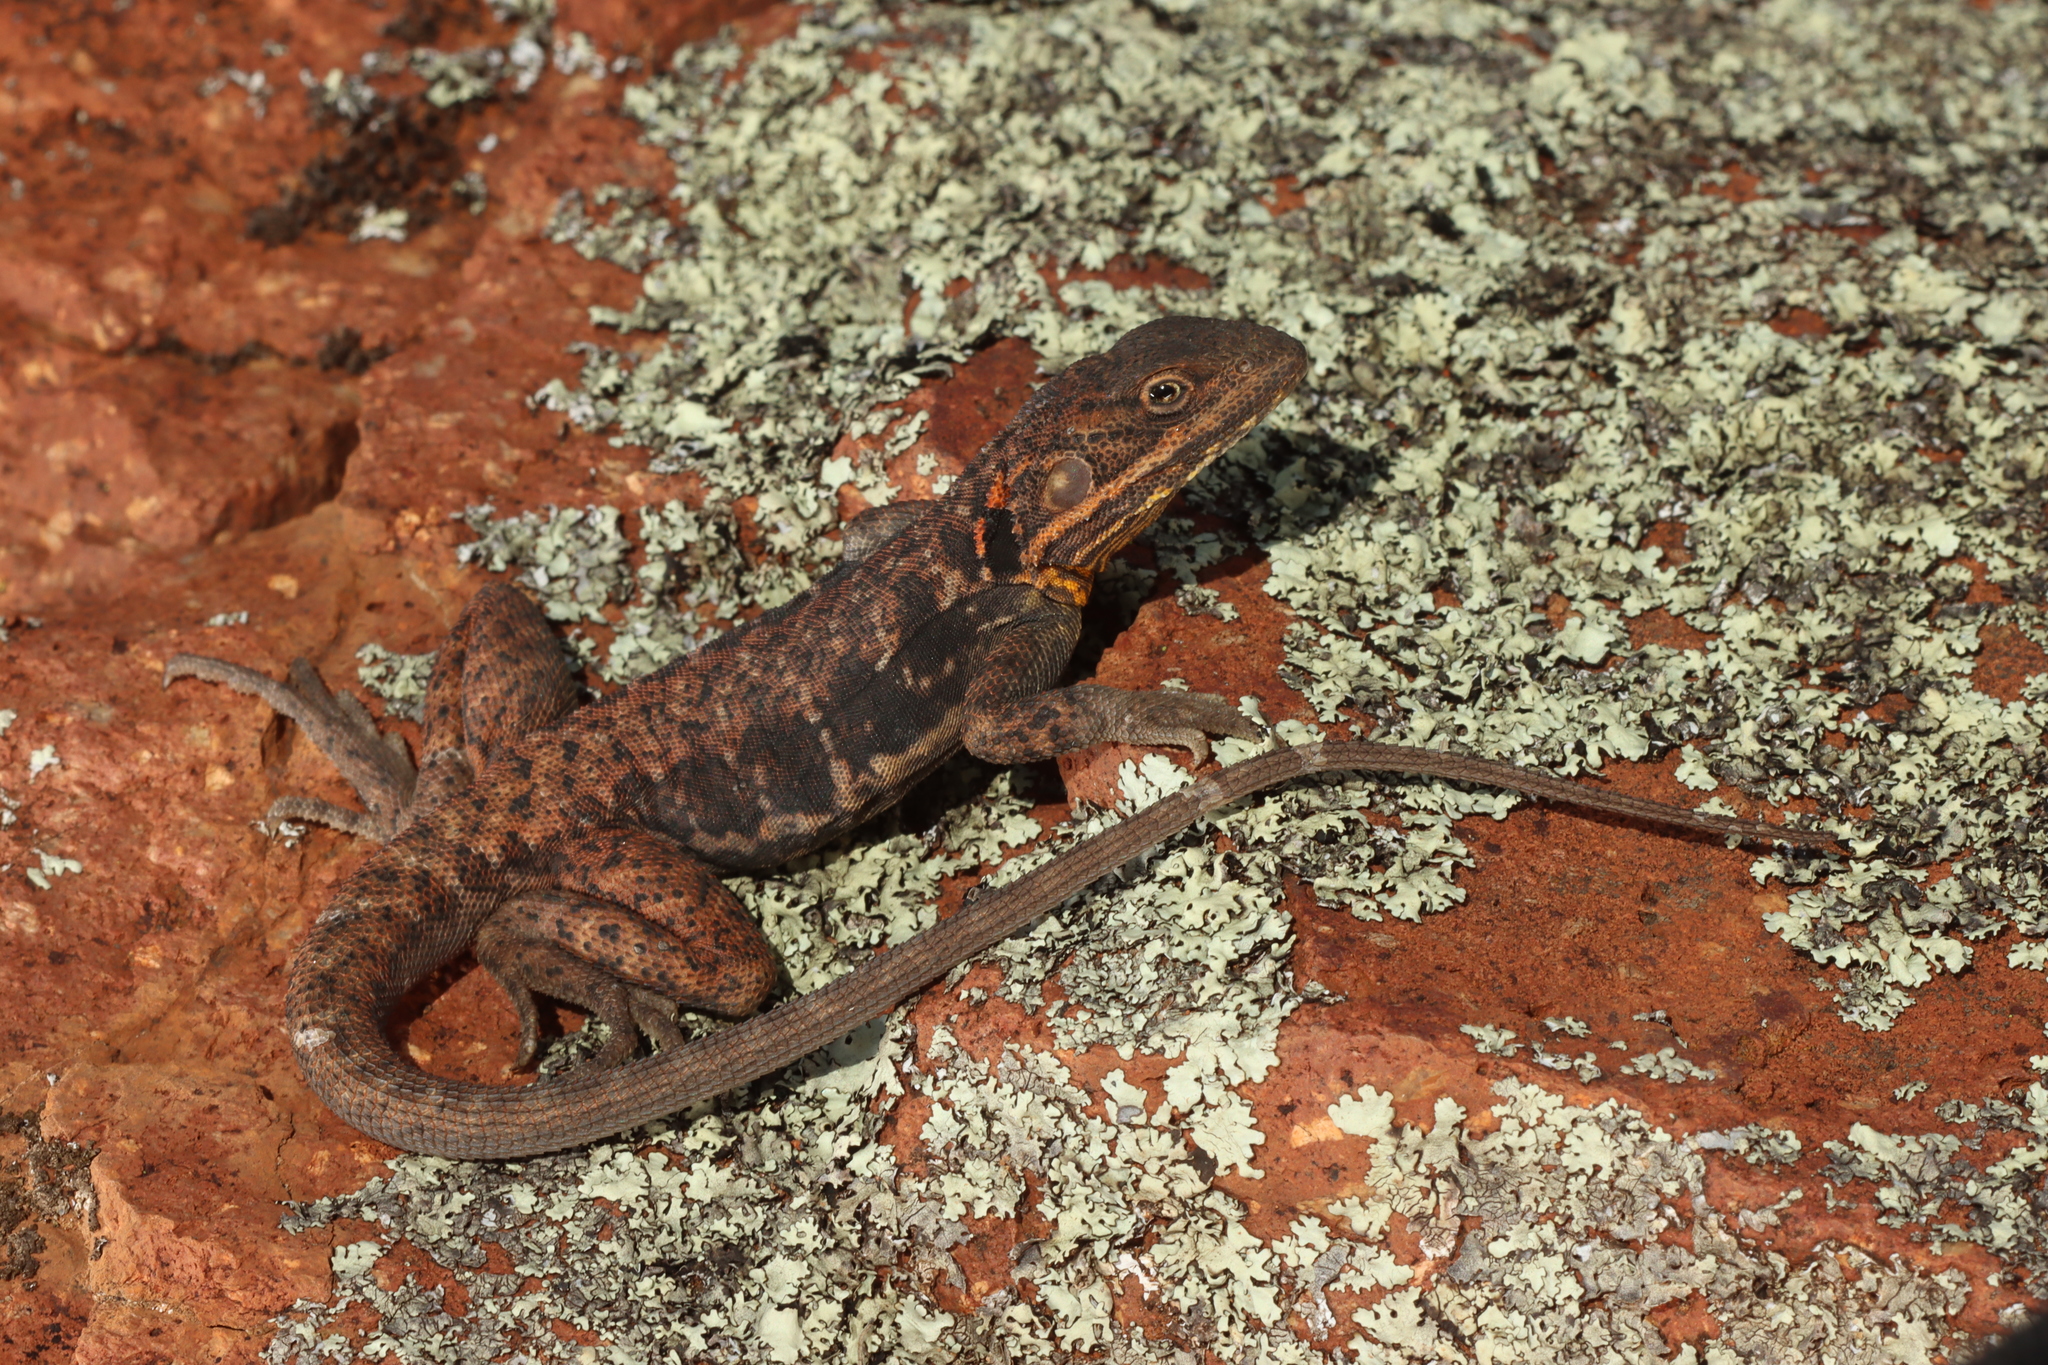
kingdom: Animalia
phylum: Chordata
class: Squamata
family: Agamidae
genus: Ctenophorus
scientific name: Ctenophorus fionni
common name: Peninsula crevis-dragon
